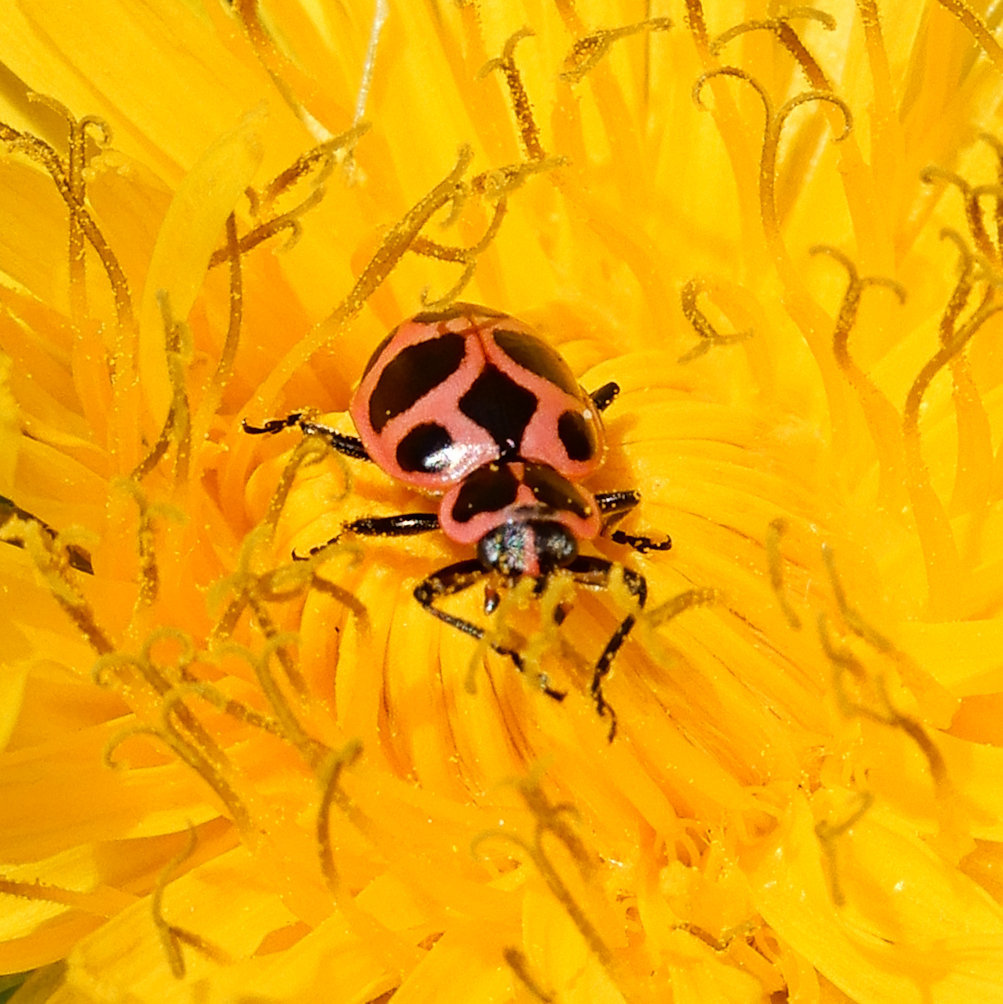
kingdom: Animalia
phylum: Arthropoda
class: Insecta
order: Coleoptera
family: Coccinellidae
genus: Coleomegilla
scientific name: Coleomegilla maculata
